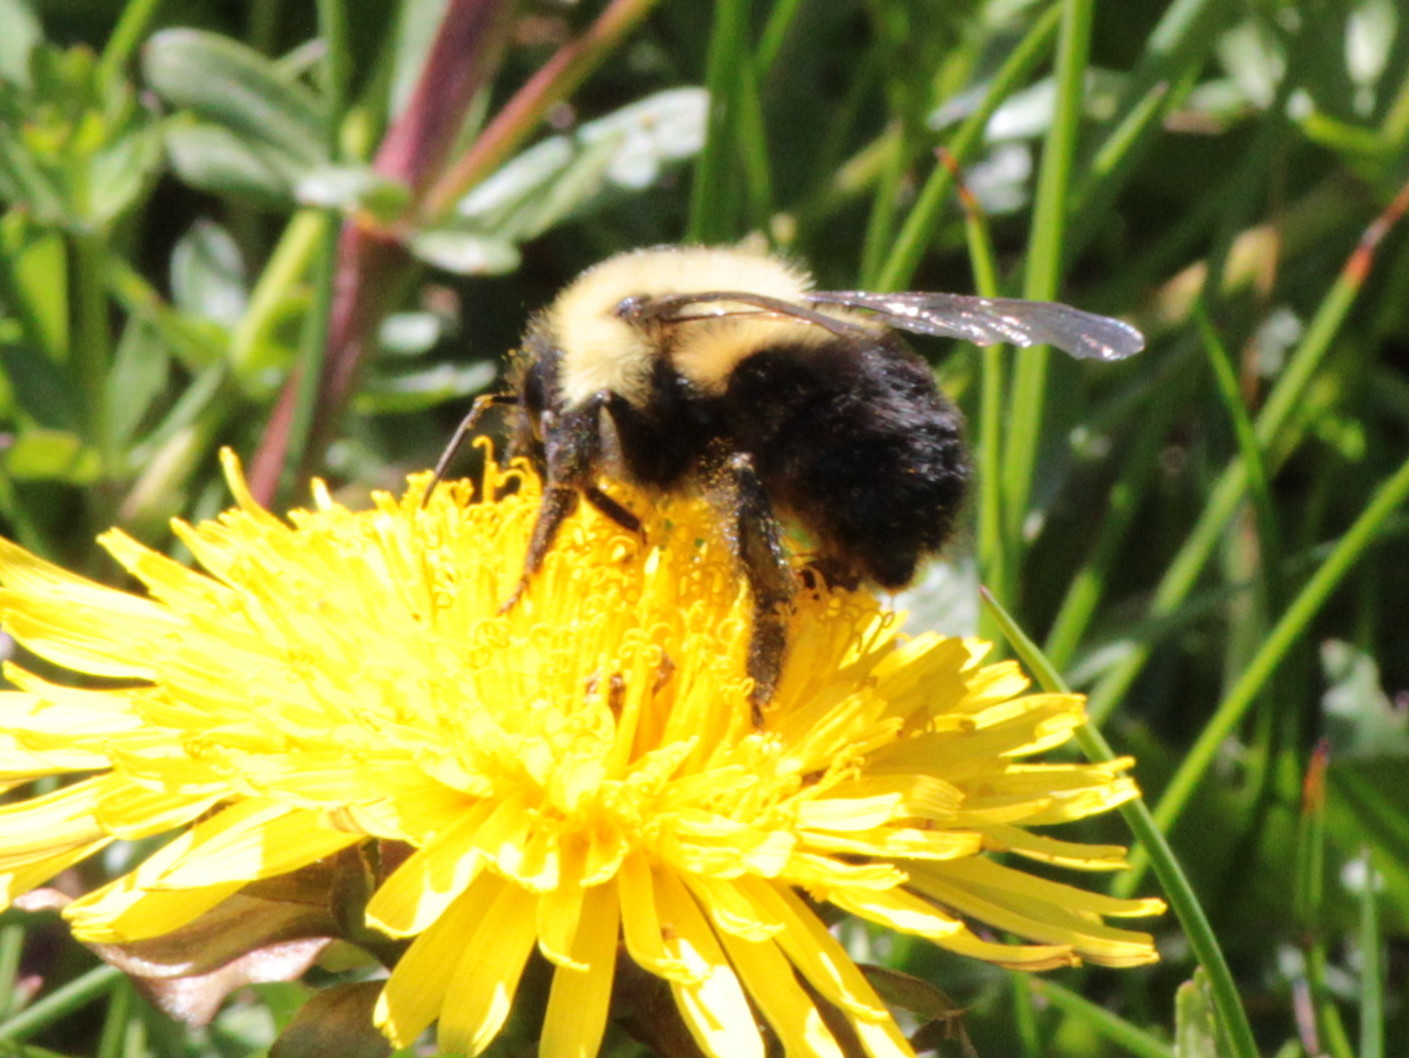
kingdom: Animalia
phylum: Arthropoda
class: Insecta
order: Hymenoptera
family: Apidae
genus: Bombus
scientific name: Bombus bimaculatus
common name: Two-spotted bumble bee
